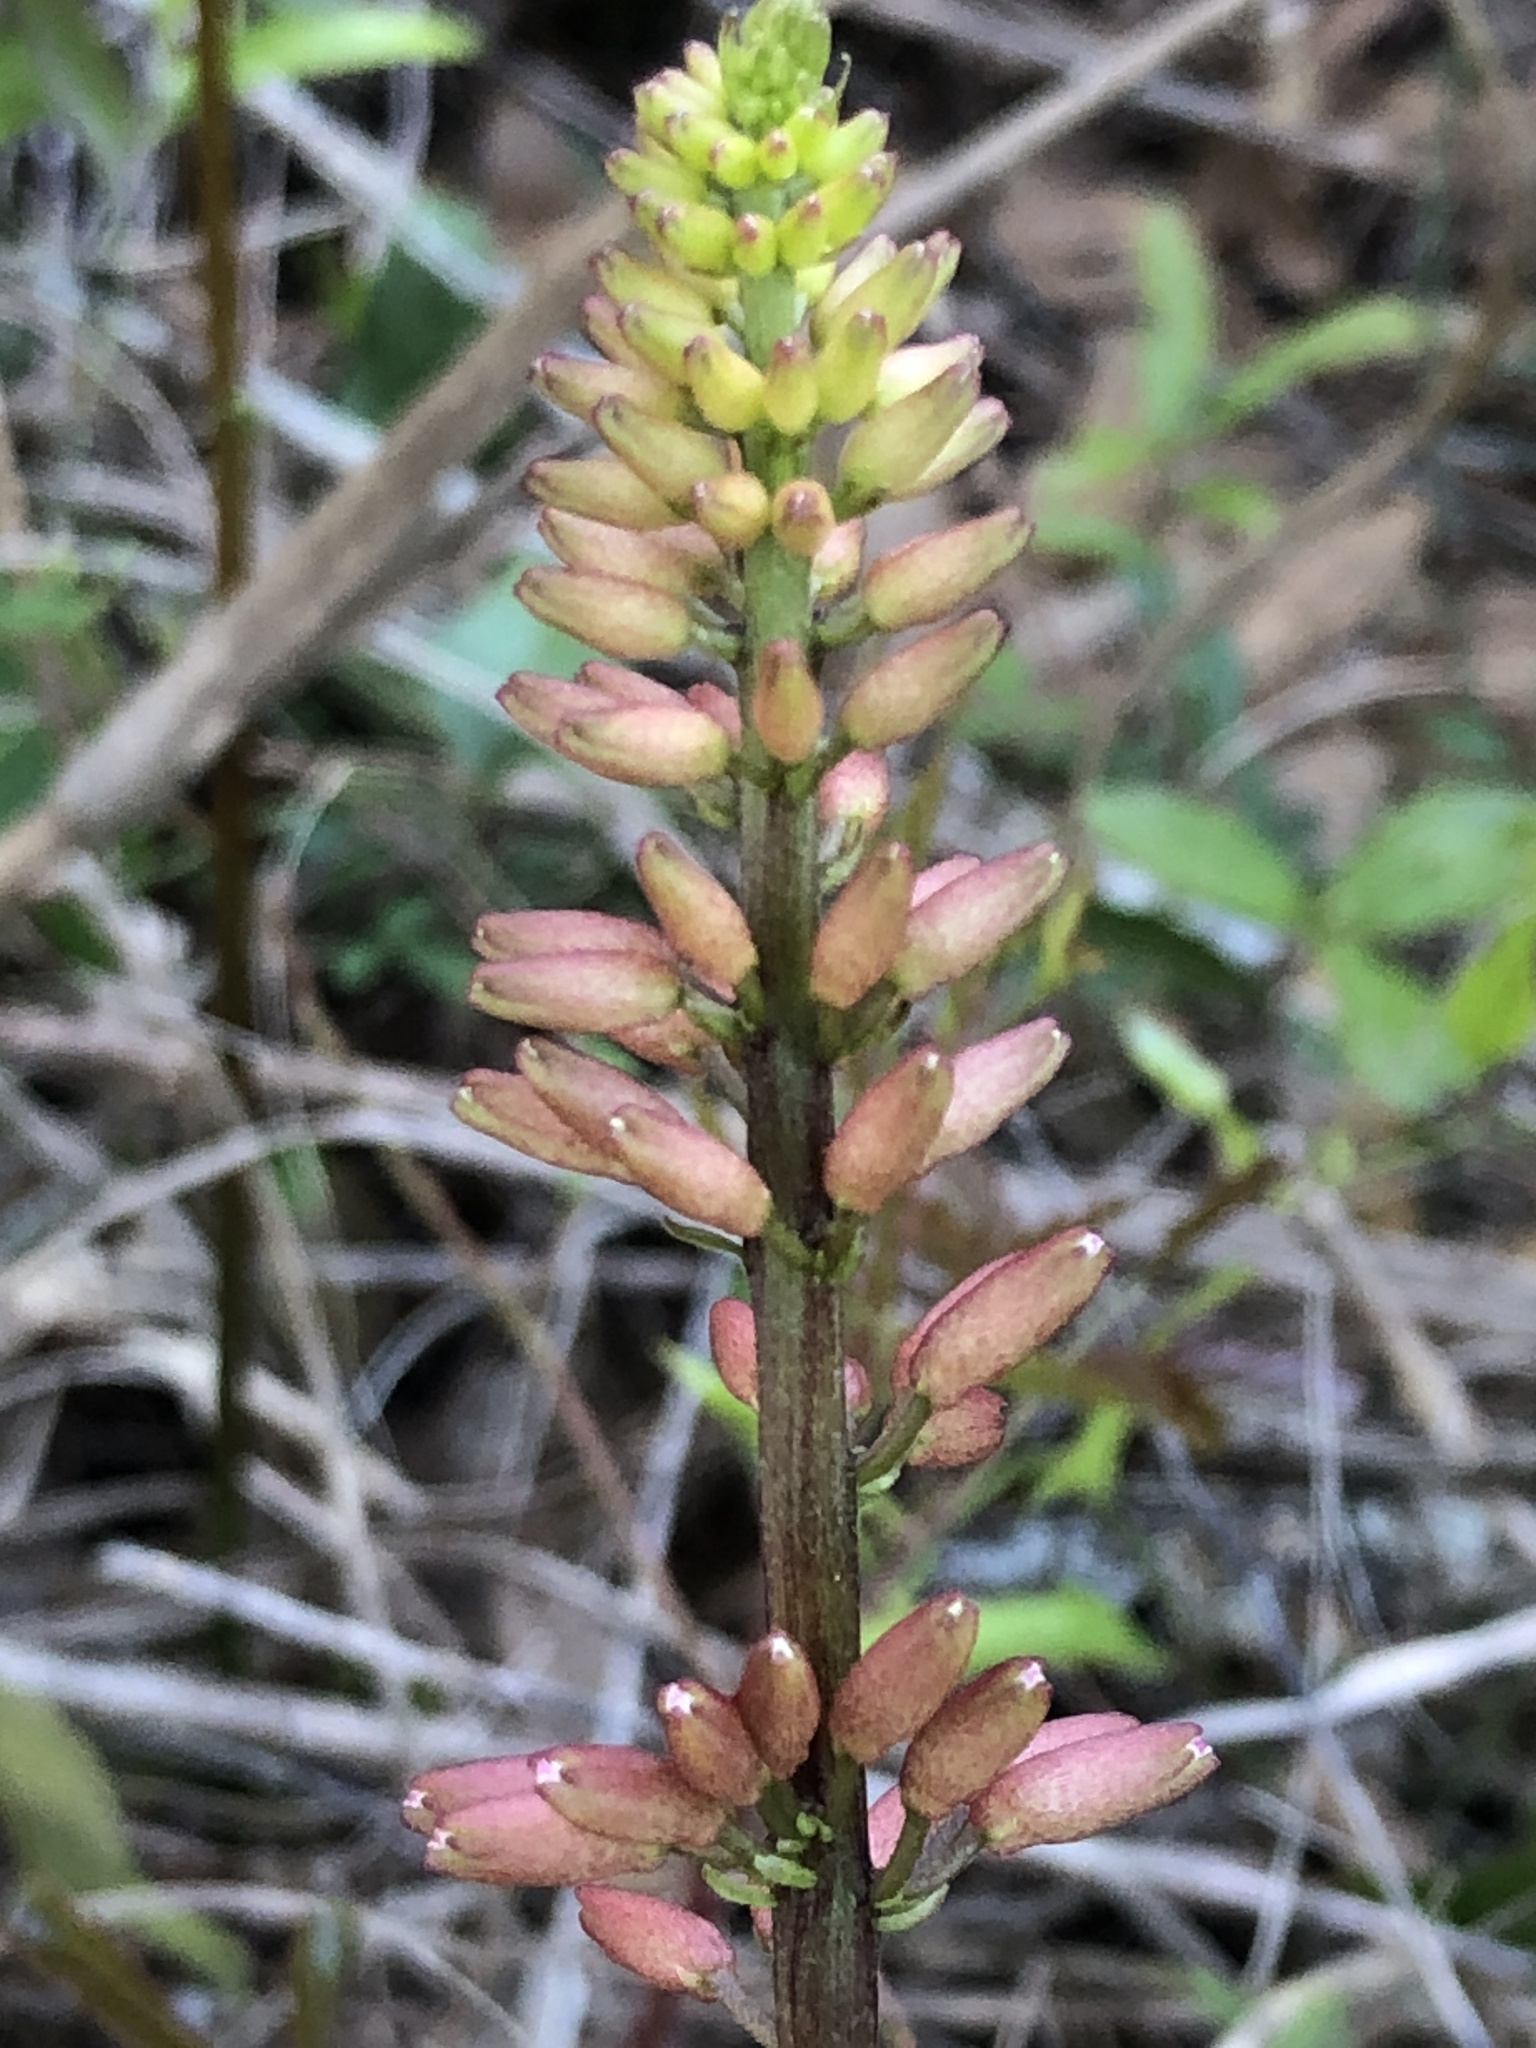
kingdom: Plantae
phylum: Tracheophyta
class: Magnoliopsida
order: Fabales
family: Fabaceae
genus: Erythrina
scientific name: Erythrina herbacea
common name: Coral-bean
